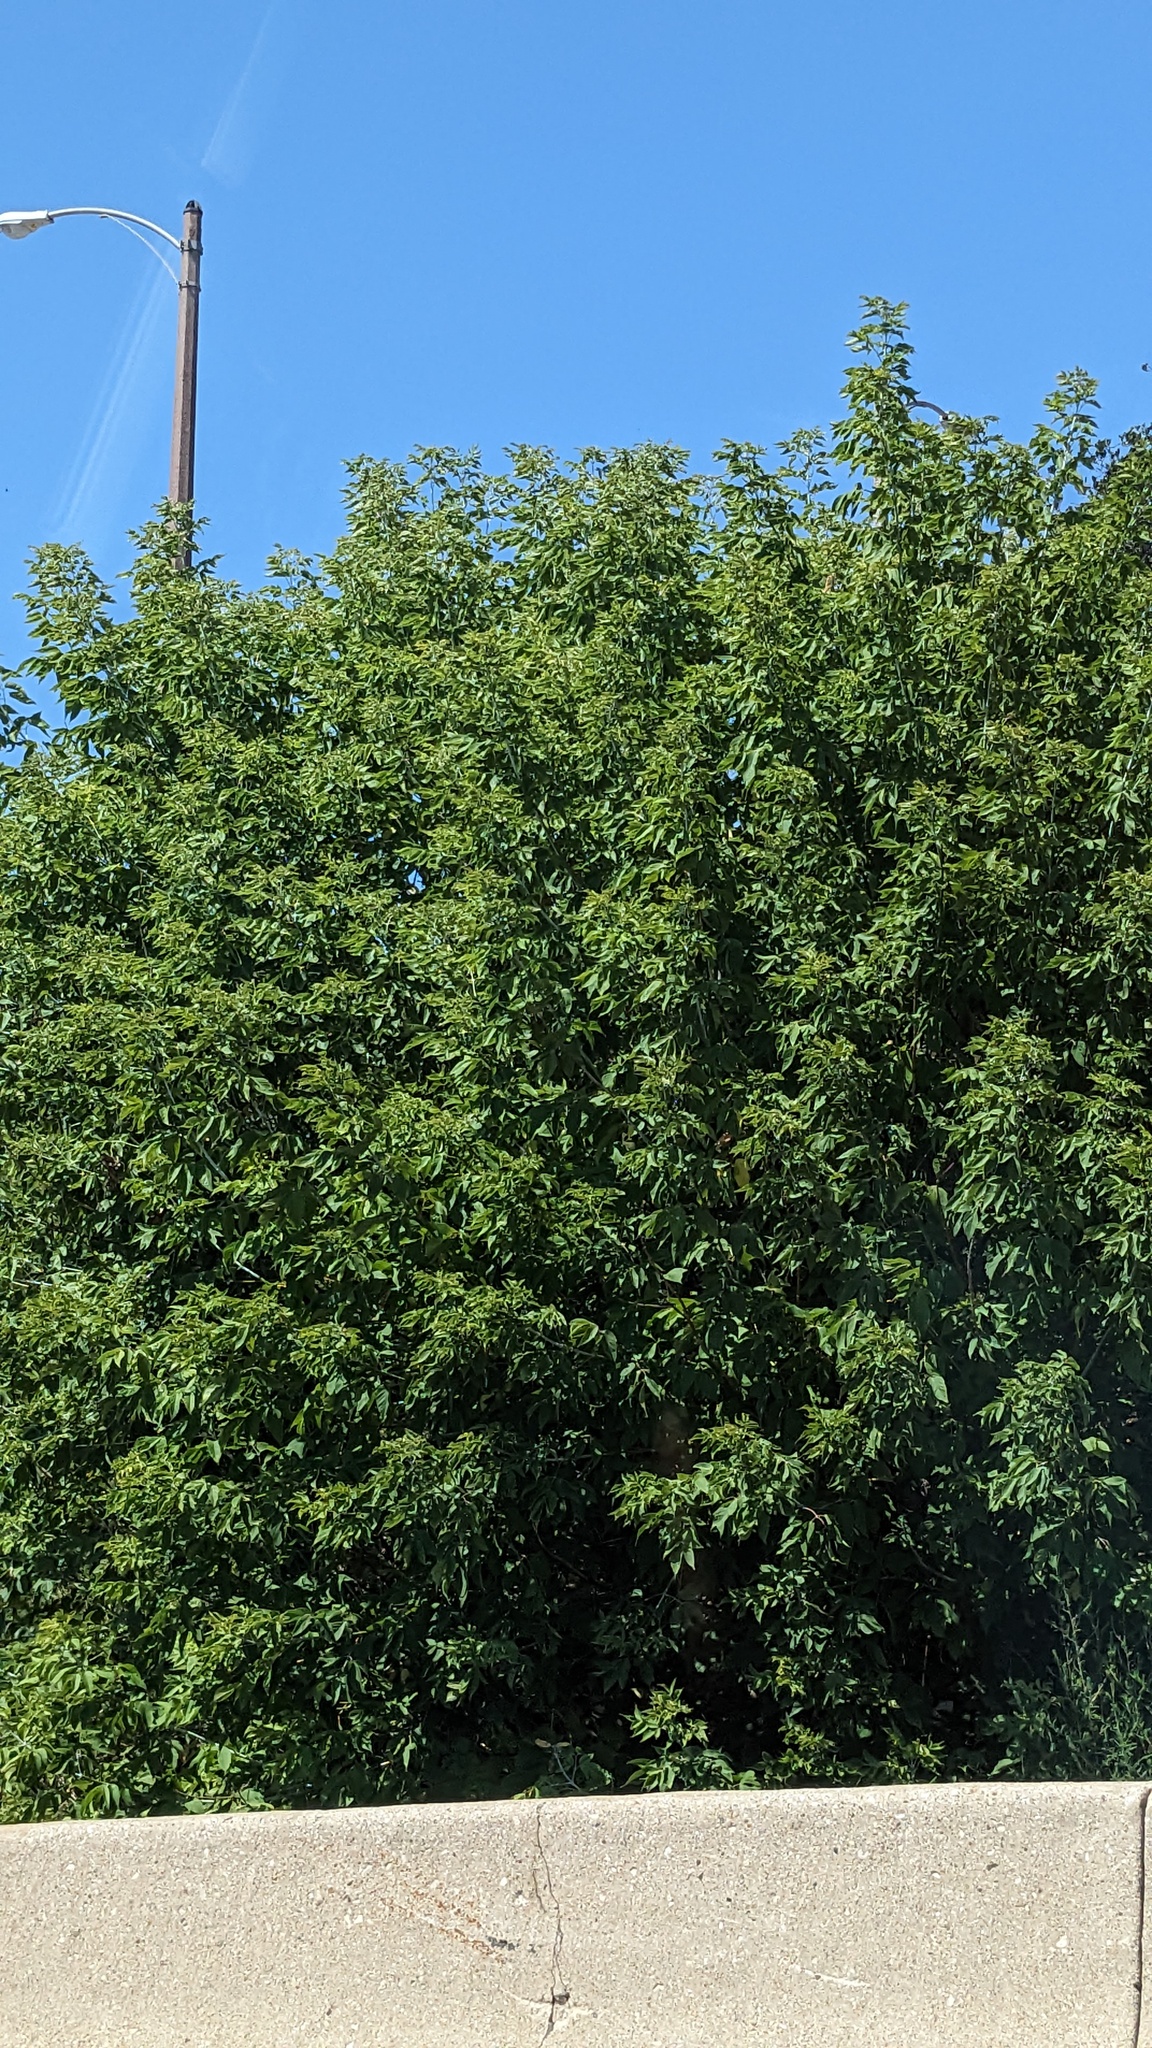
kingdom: Plantae
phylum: Tracheophyta
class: Magnoliopsida
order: Sapindales
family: Sapindaceae
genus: Acer
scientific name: Acer negundo
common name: Ashleaf maple
